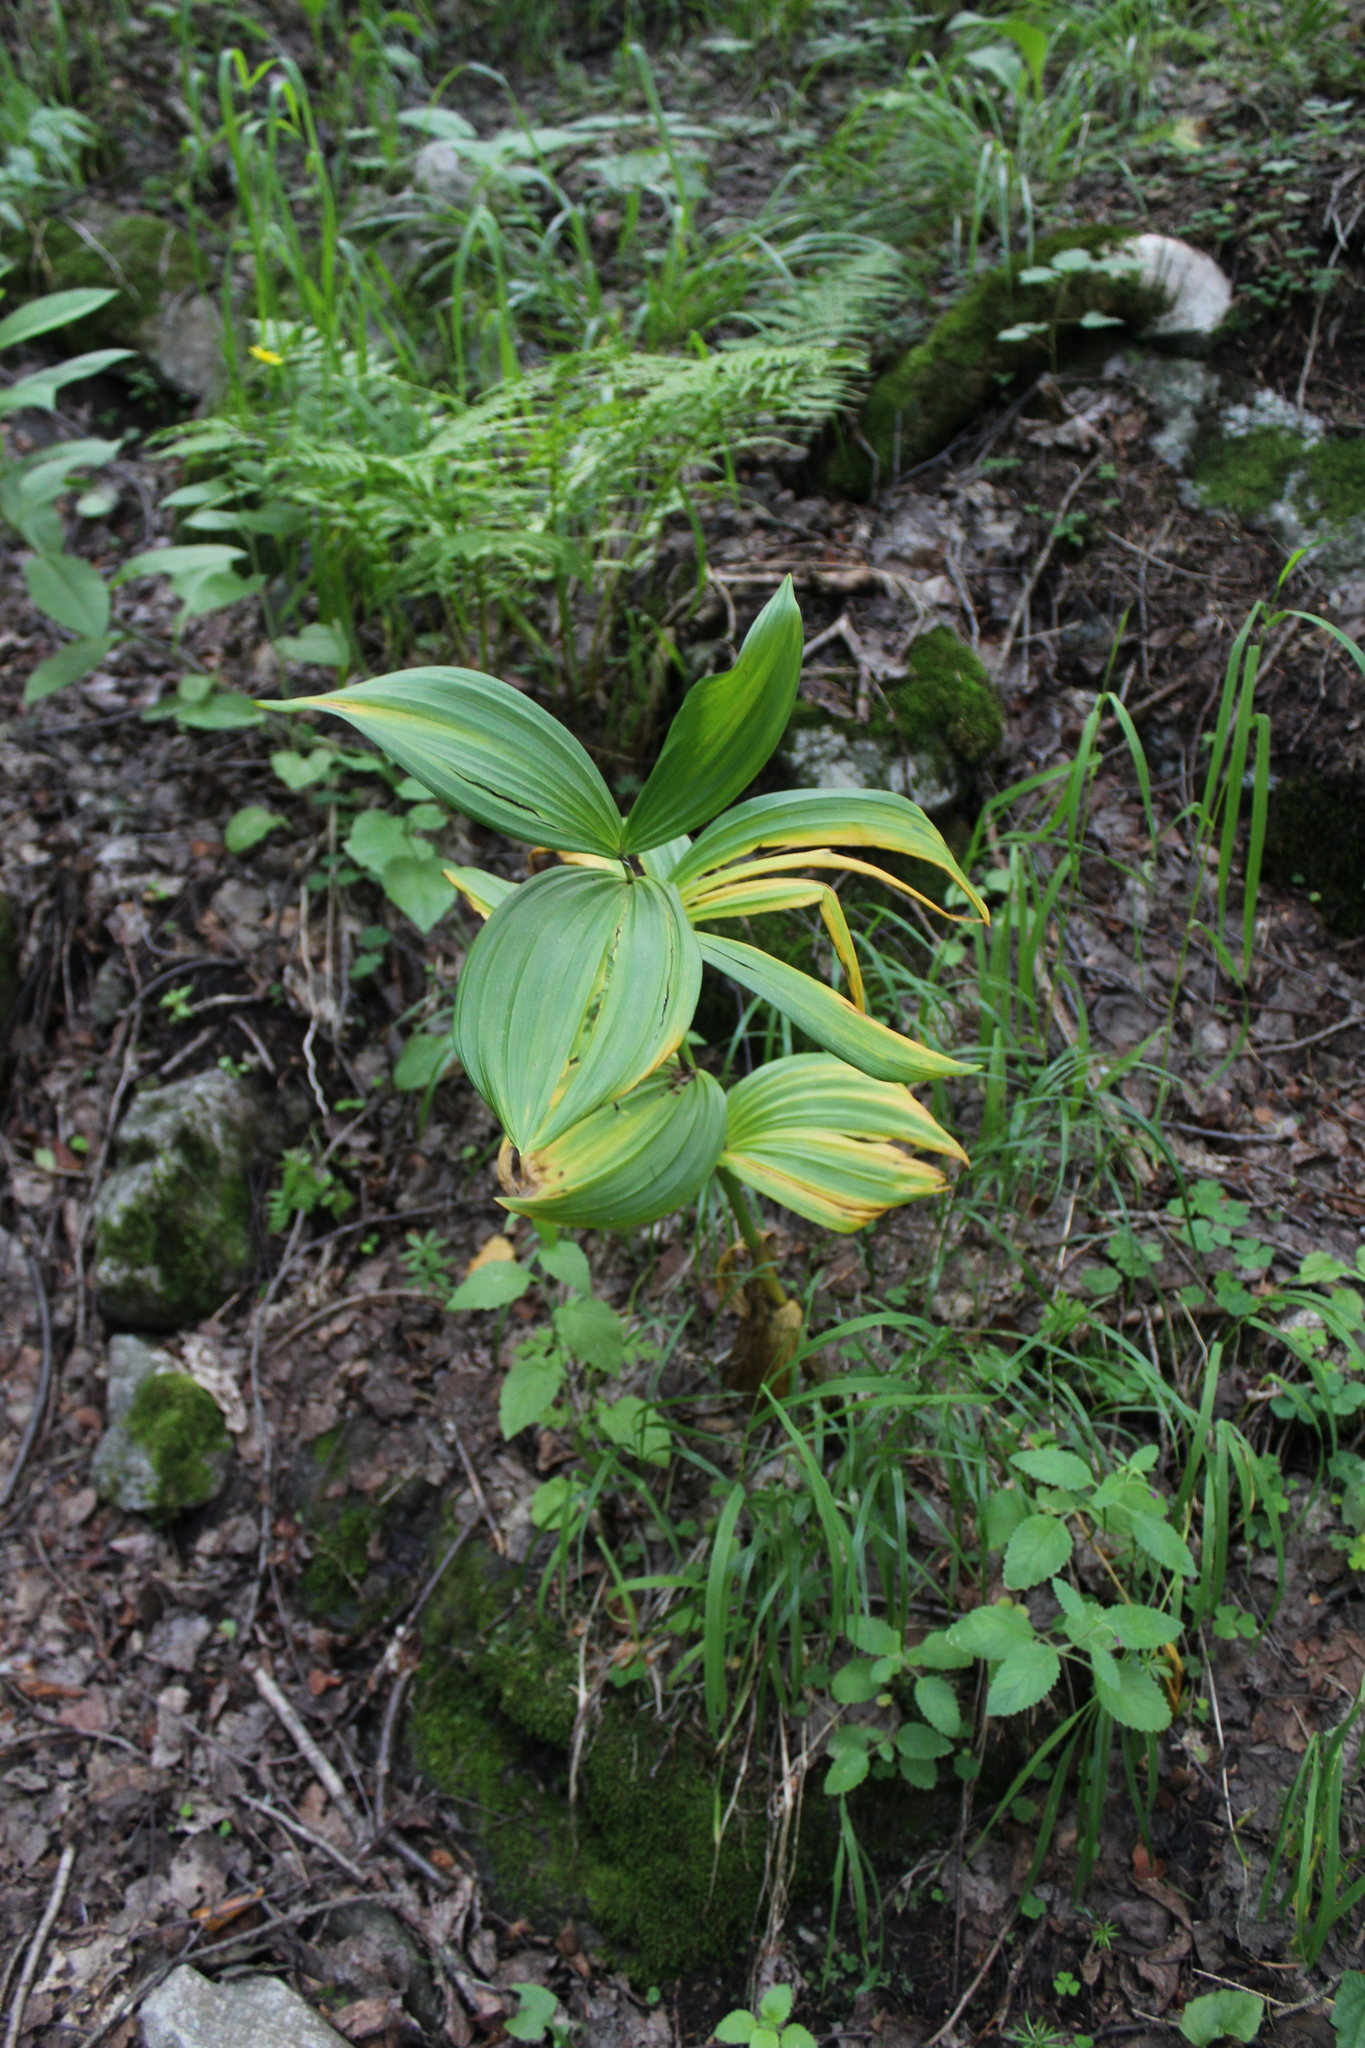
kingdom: Plantae
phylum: Tracheophyta
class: Liliopsida
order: Liliales
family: Melanthiaceae
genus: Veratrum
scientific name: Veratrum lobelianum
